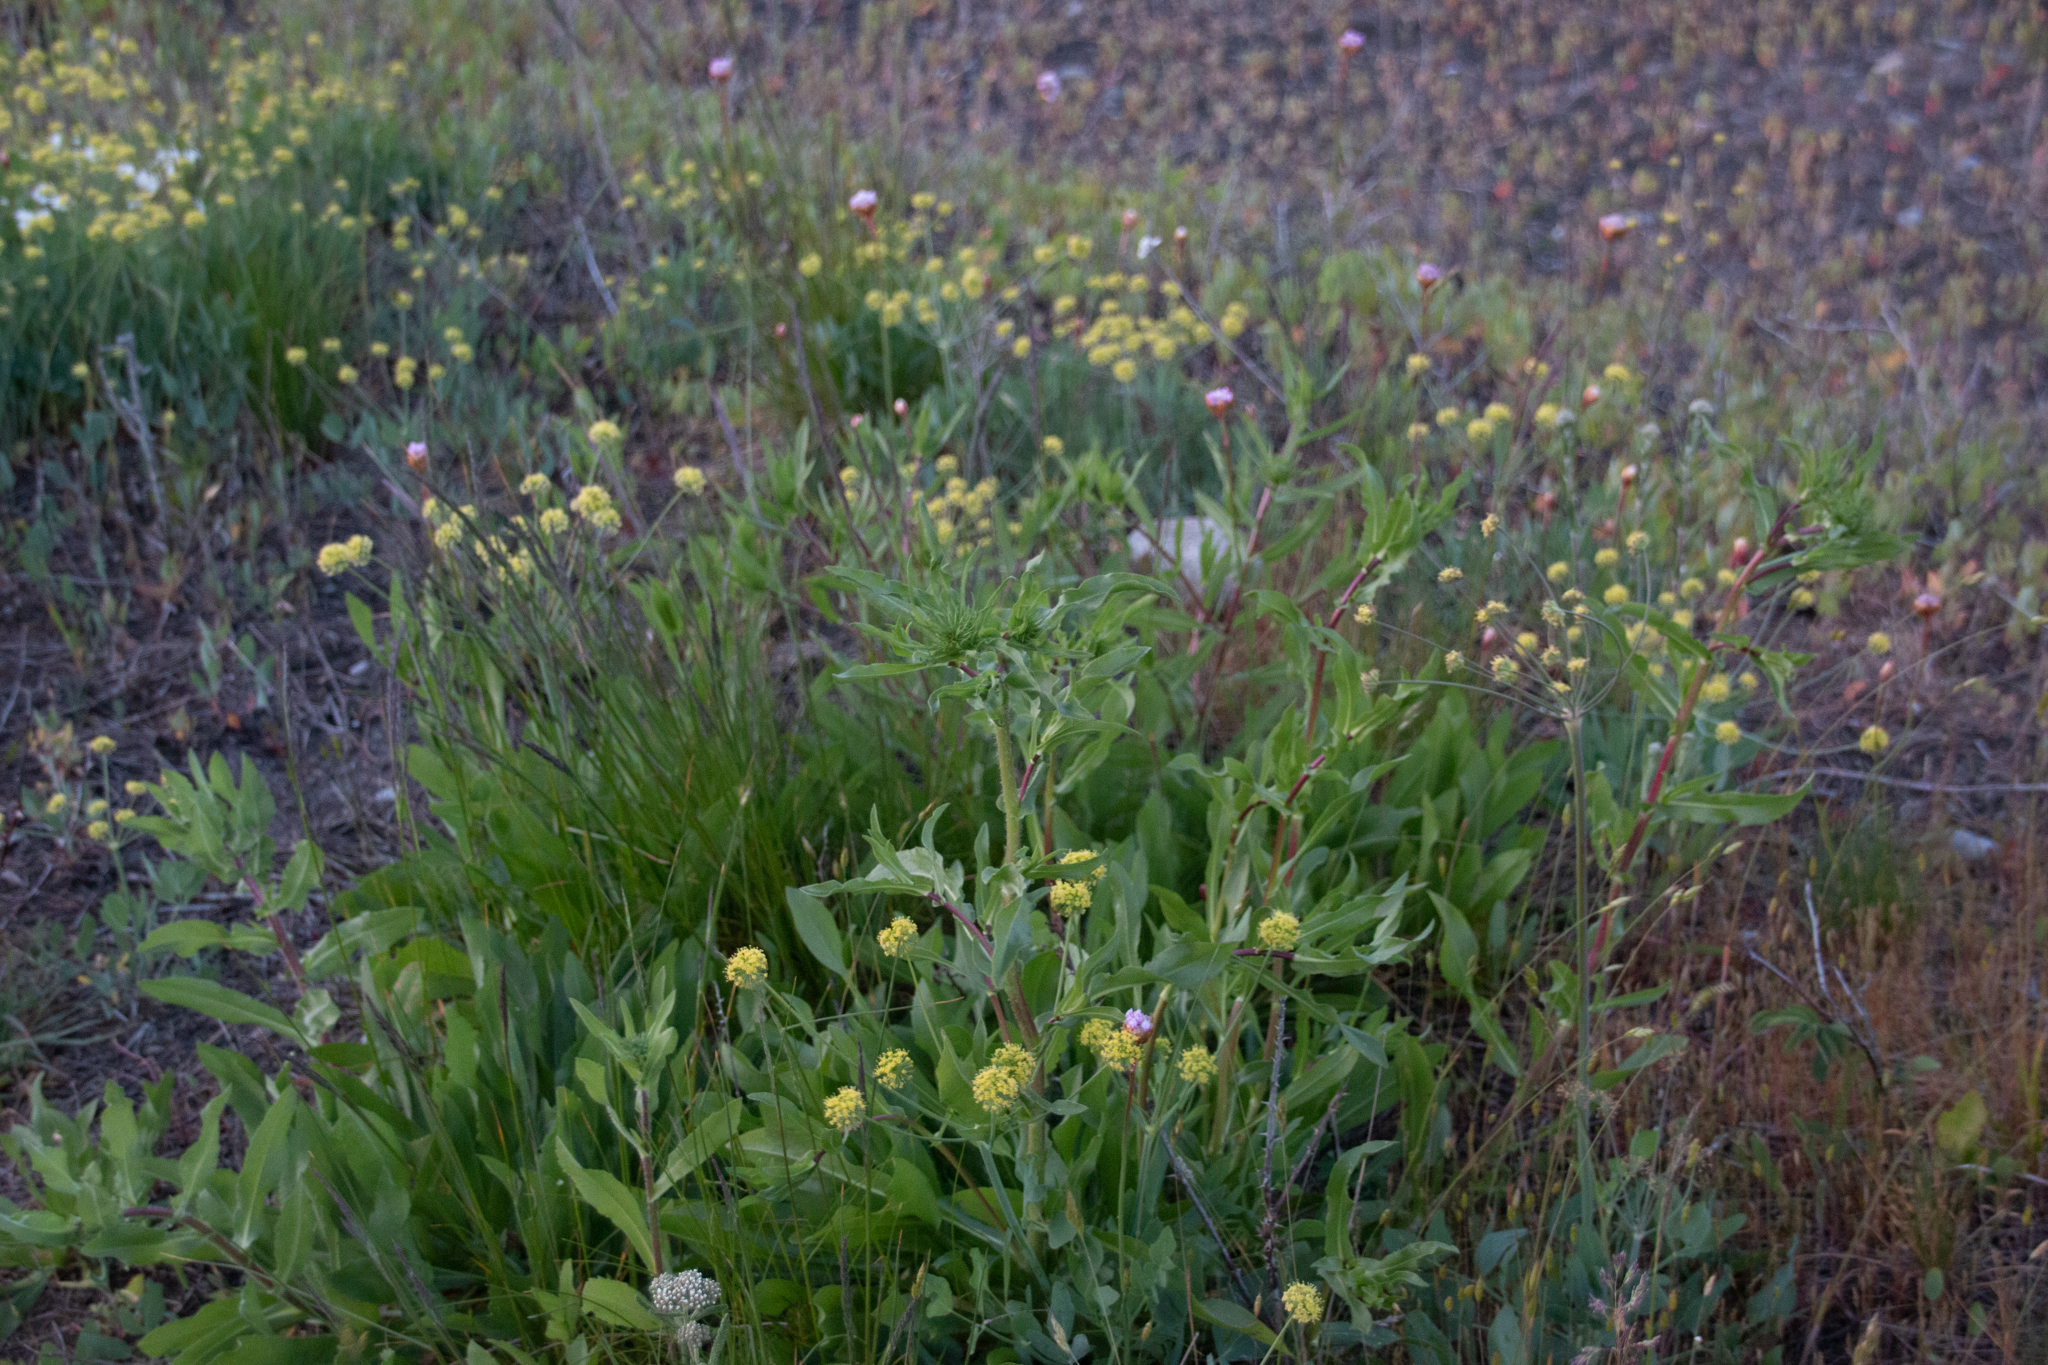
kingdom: Plantae
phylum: Tracheophyta
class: Magnoliopsida
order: Apiales
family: Apiaceae
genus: Lomatium
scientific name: Lomatium nudicaule
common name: Pestle lomatium
